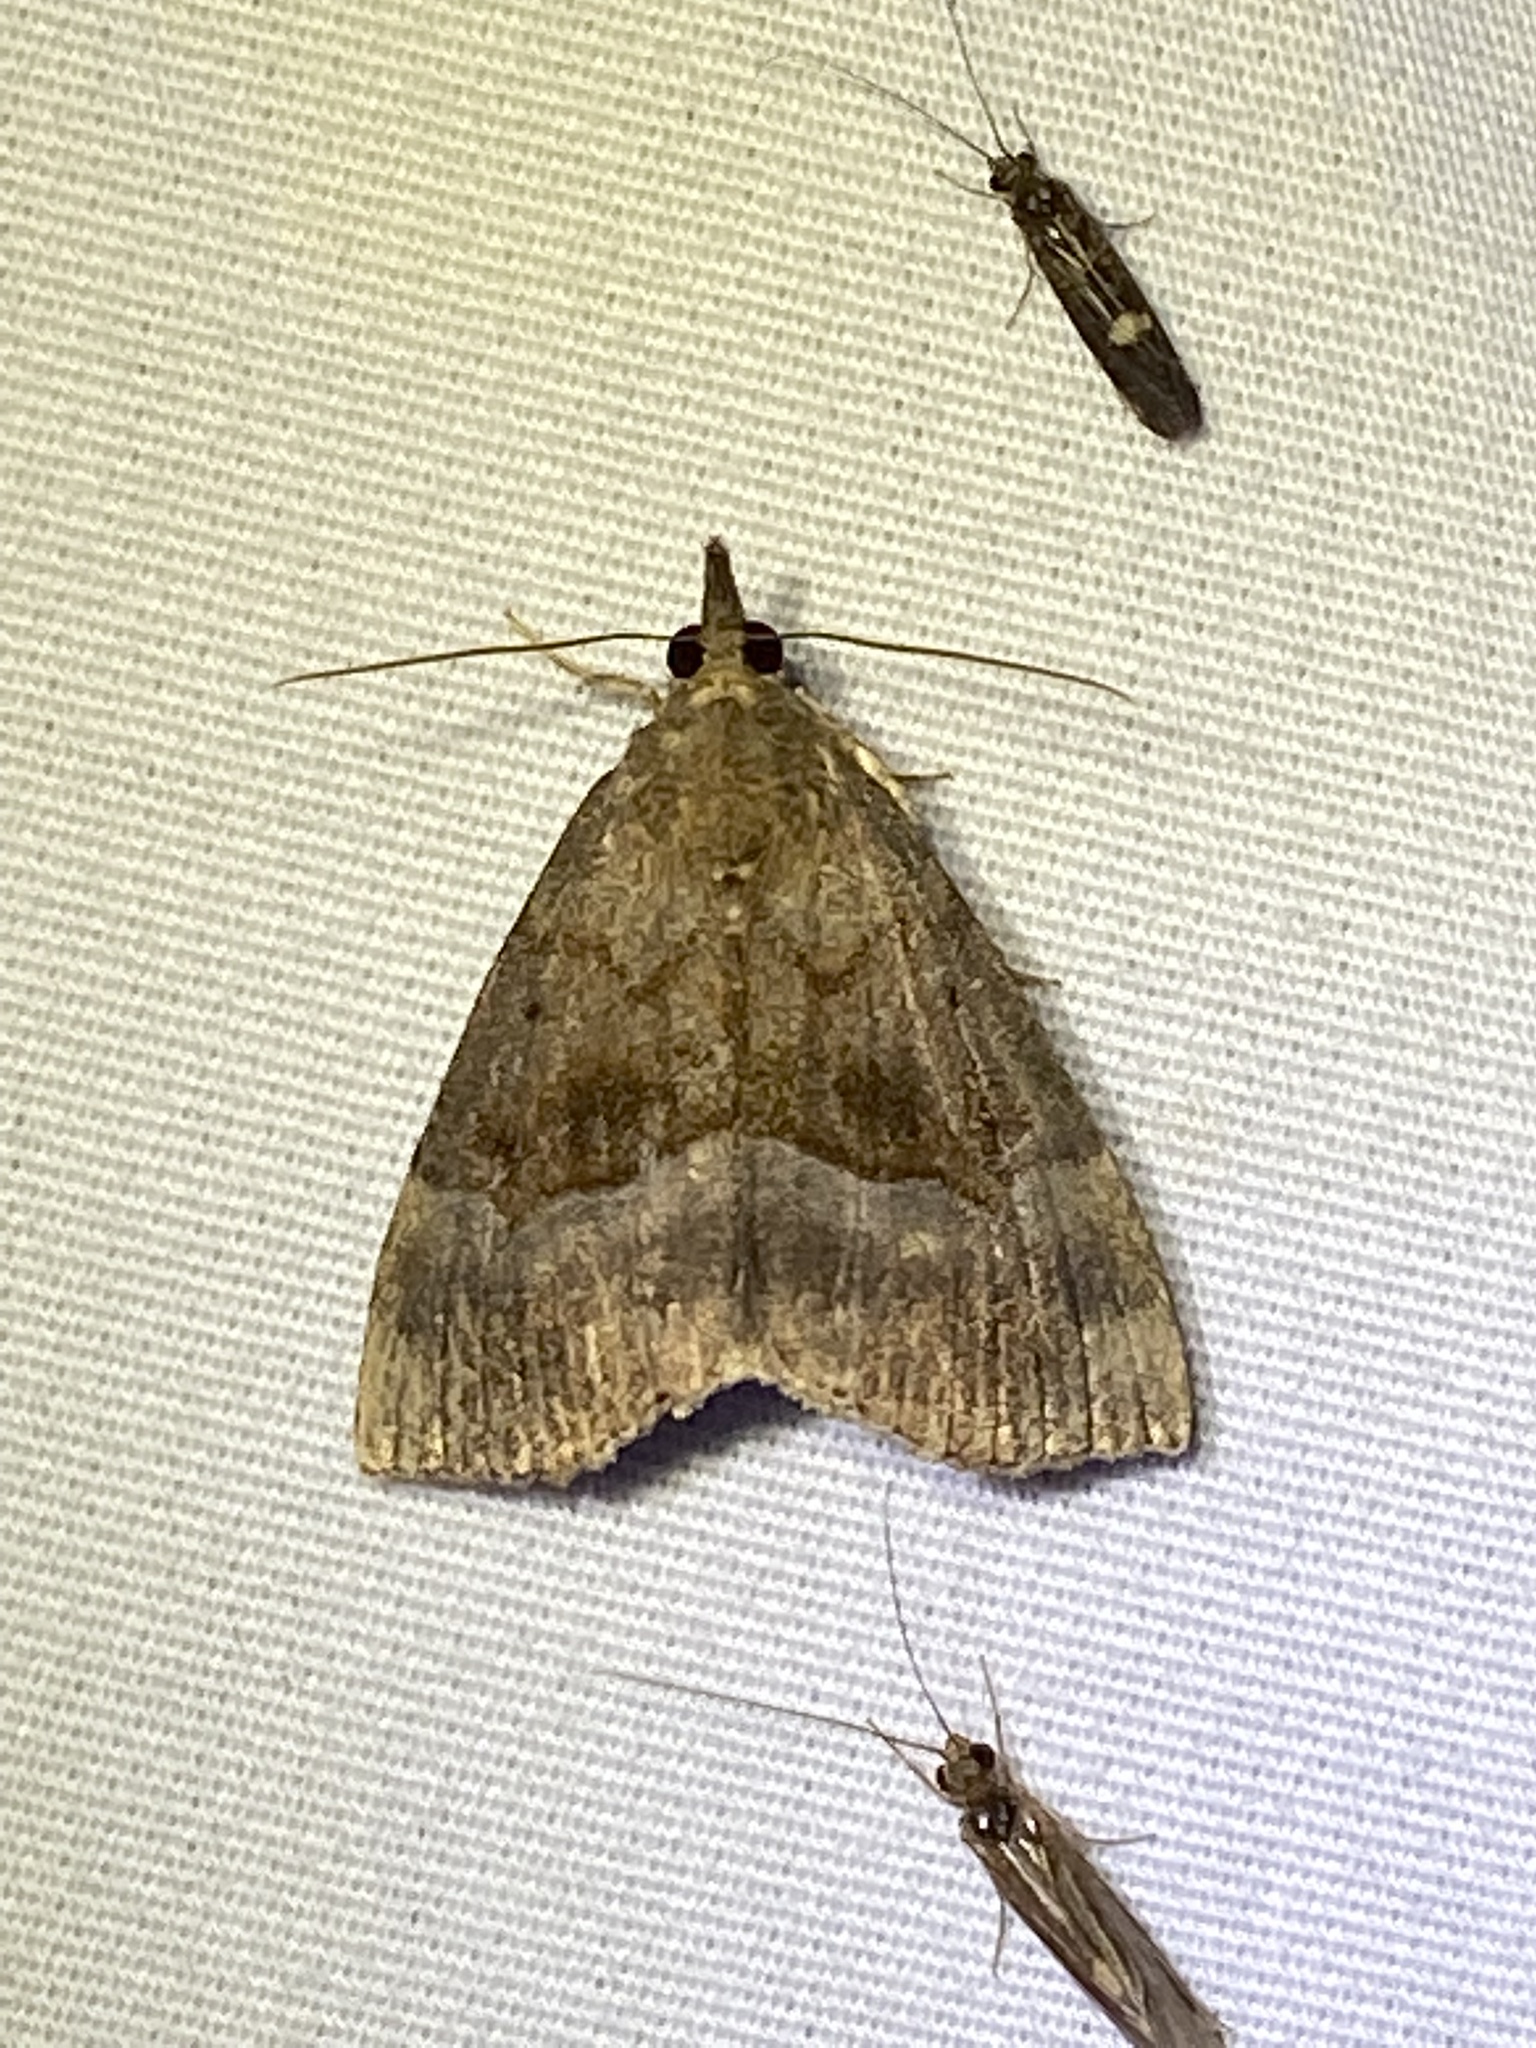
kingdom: Animalia
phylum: Arthropoda
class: Insecta
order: Lepidoptera
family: Erebidae
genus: Hypena
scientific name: Hypena madefactalis
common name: Gray-edged snout
